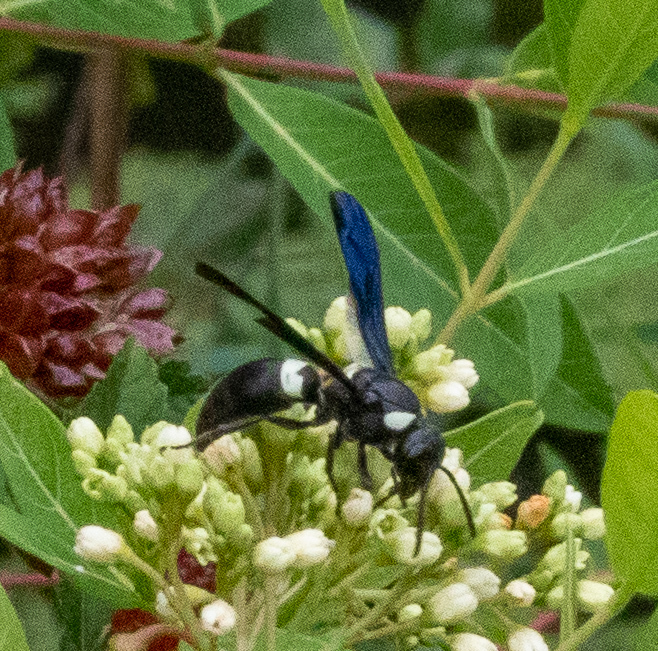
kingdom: Animalia
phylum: Arthropoda
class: Insecta
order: Hymenoptera
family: Eumenidae
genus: Monobia
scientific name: Monobia quadridens
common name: Four-toothed mason wasp
